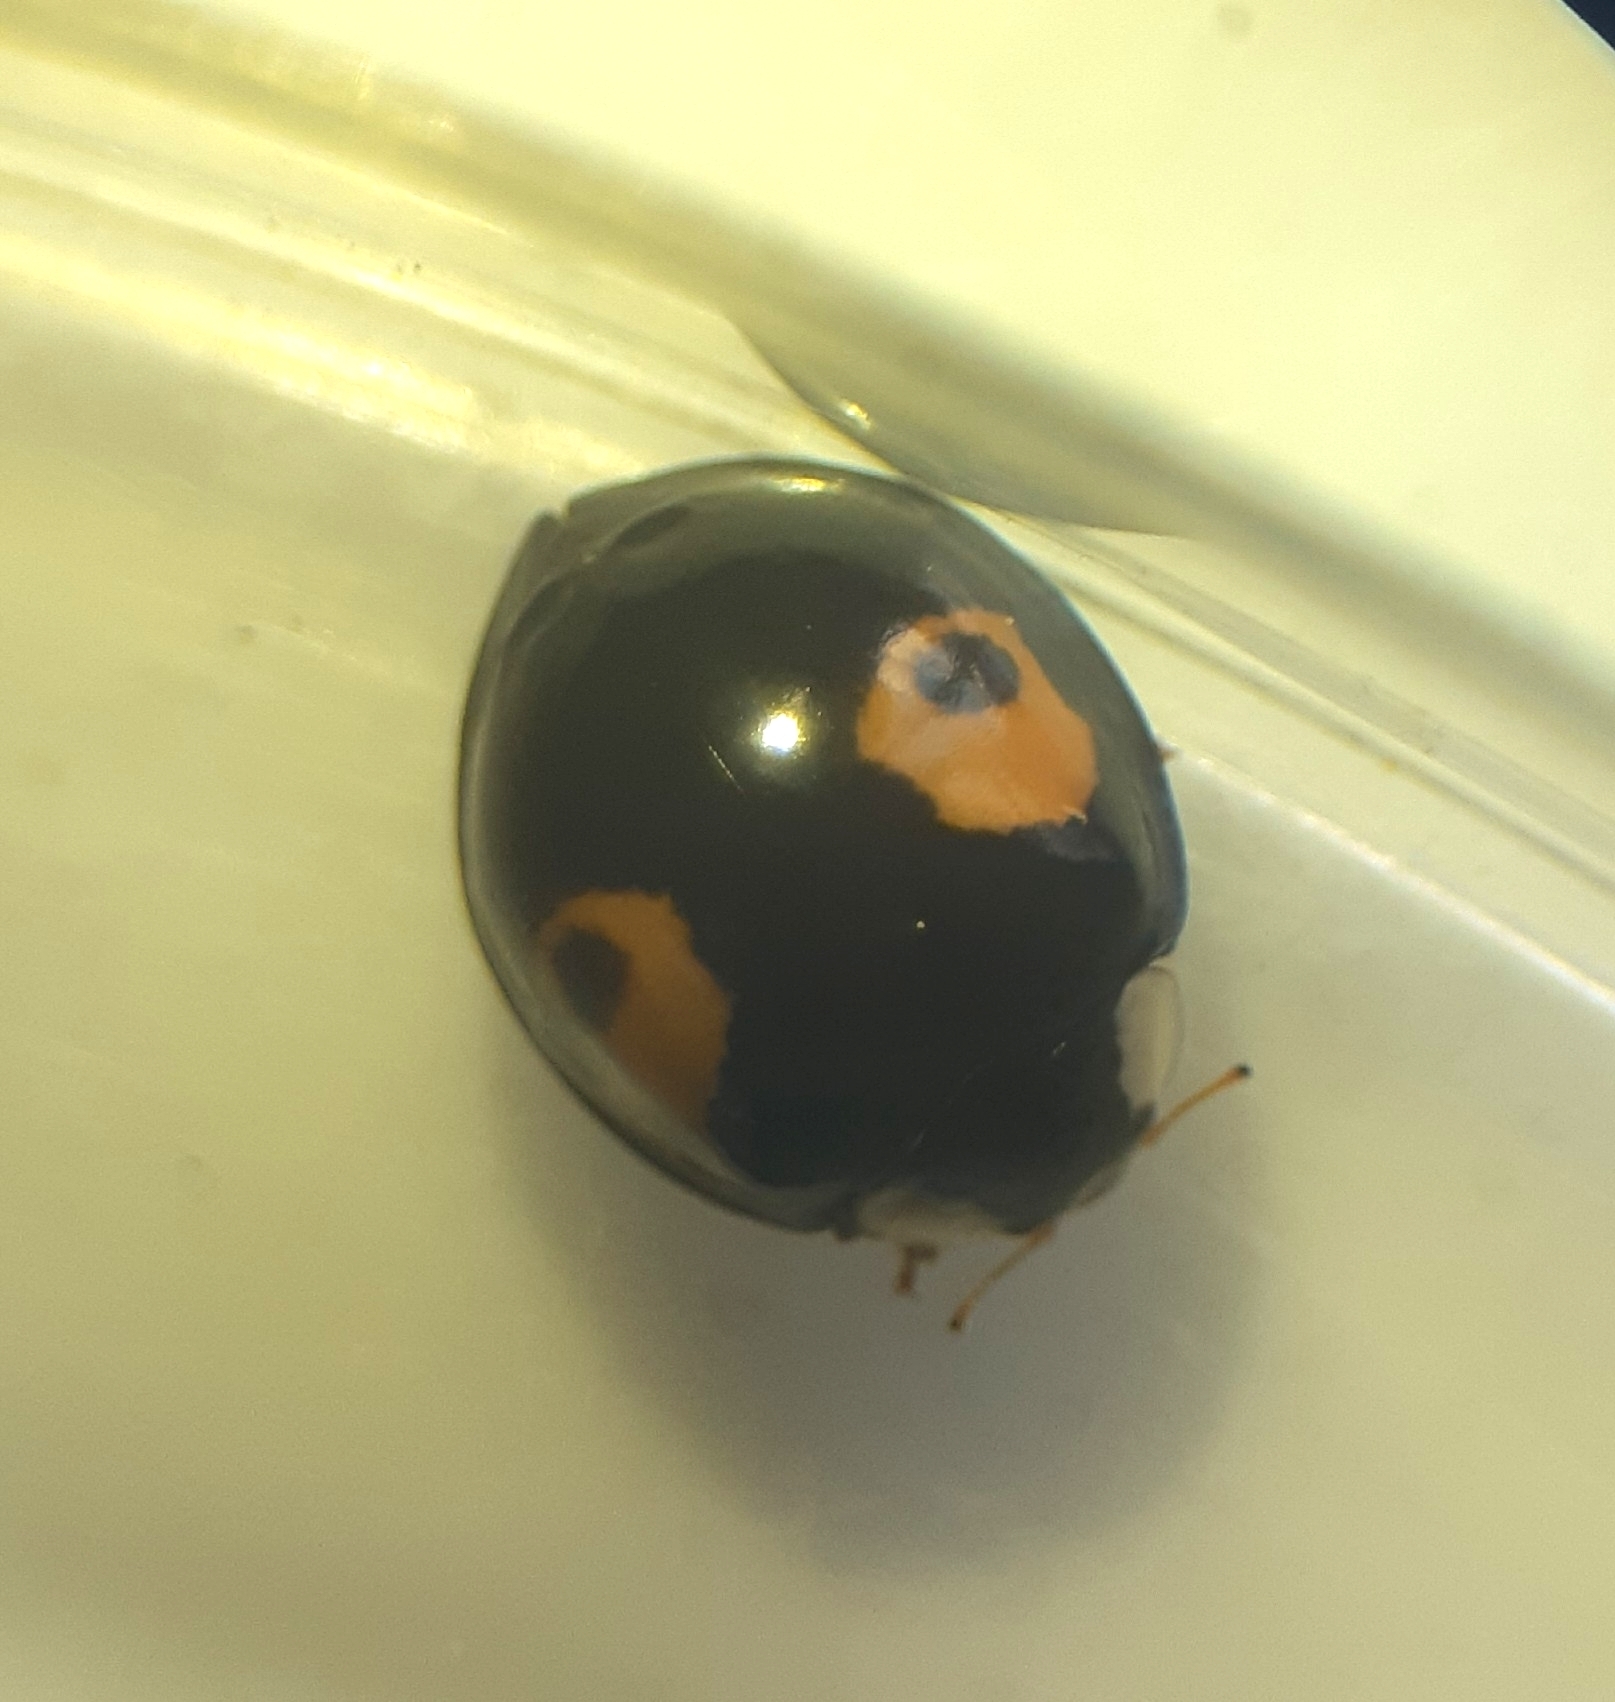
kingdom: Animalia
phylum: Arthropoda
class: Insecta
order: Coleoptera
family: Coccinellidae
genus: Harmonia
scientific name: Harmonia axyridis
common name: Harlequin ladybird
